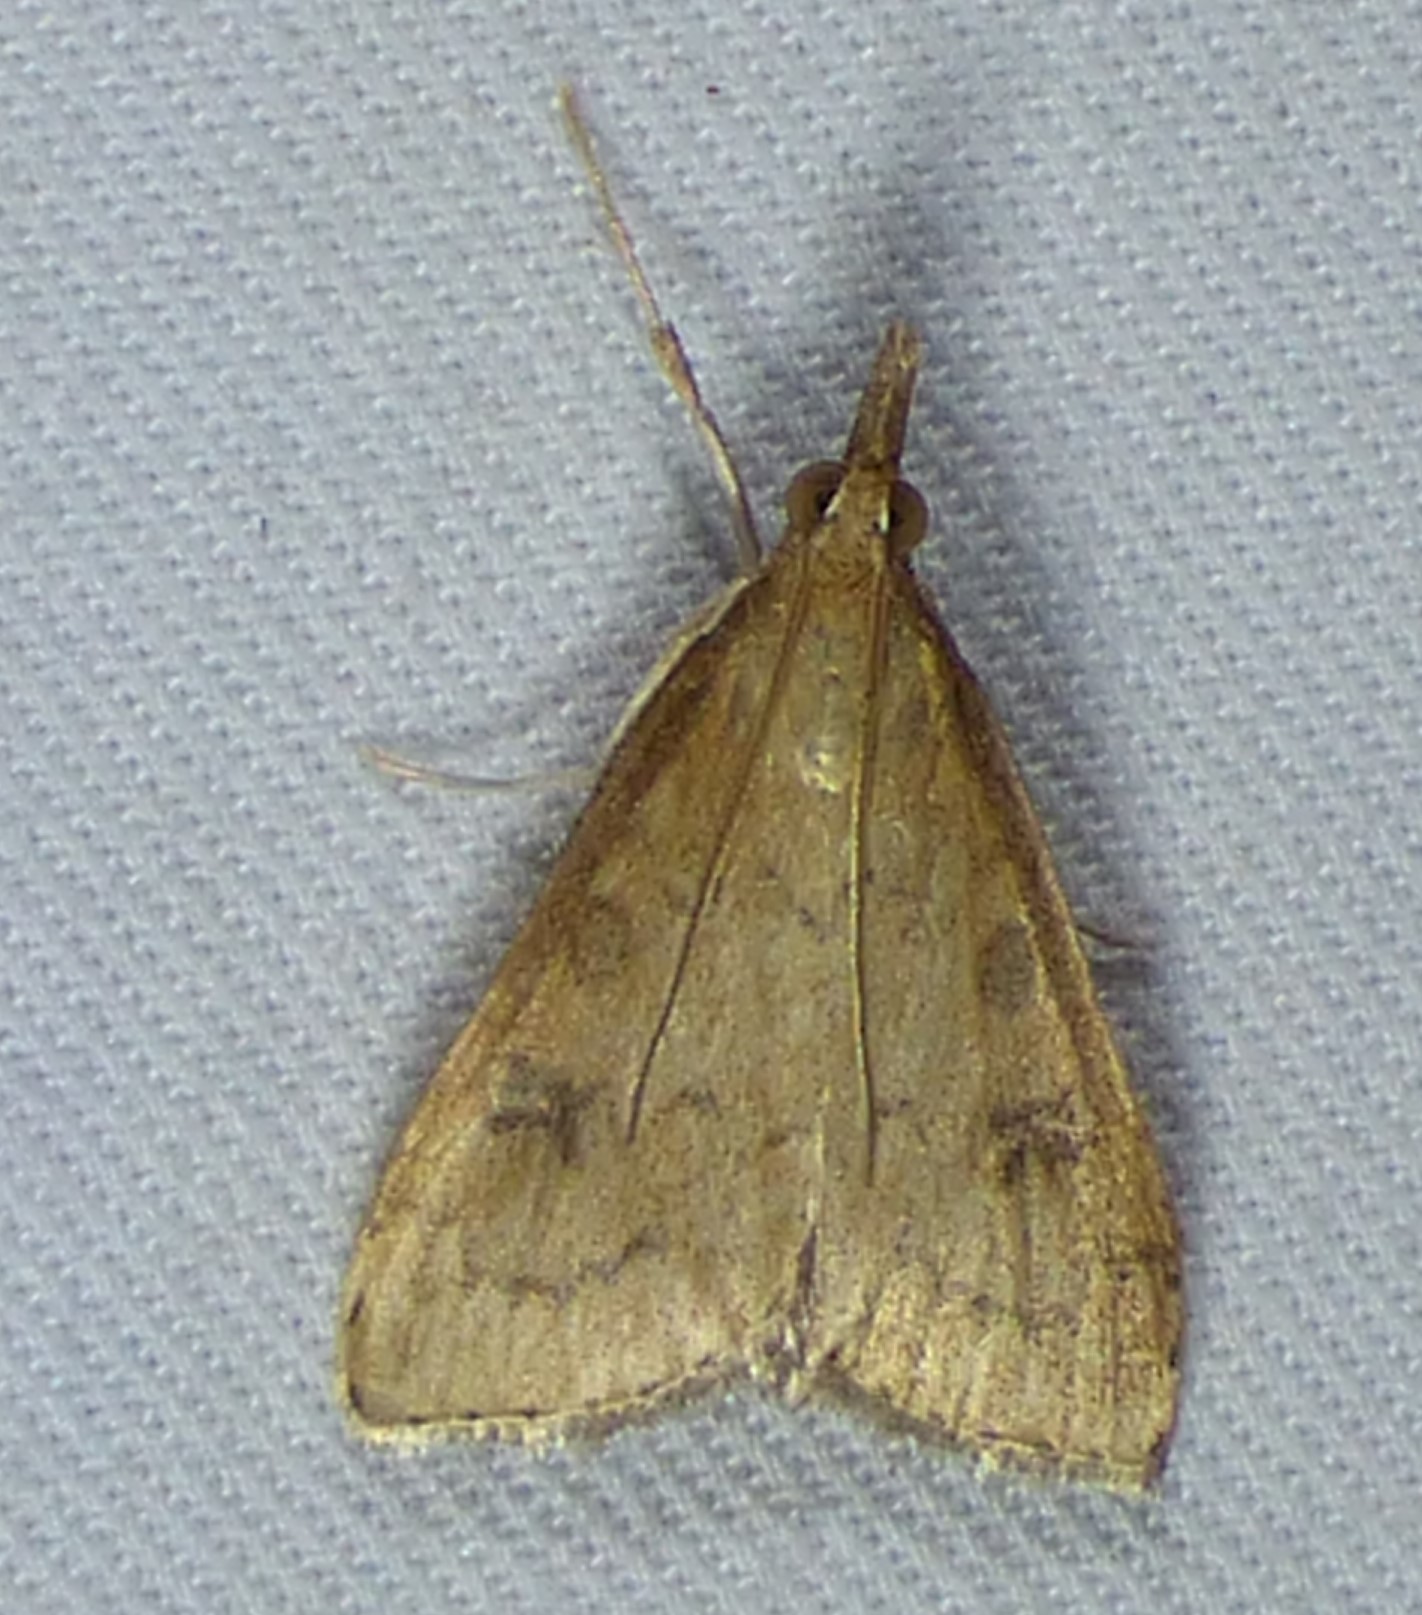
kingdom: Animalia
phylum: Arthropoda
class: Insecta
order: Lepidoptera
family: Crambidae
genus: Udea
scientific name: Udea rubigalis
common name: Celery leaftier moth
